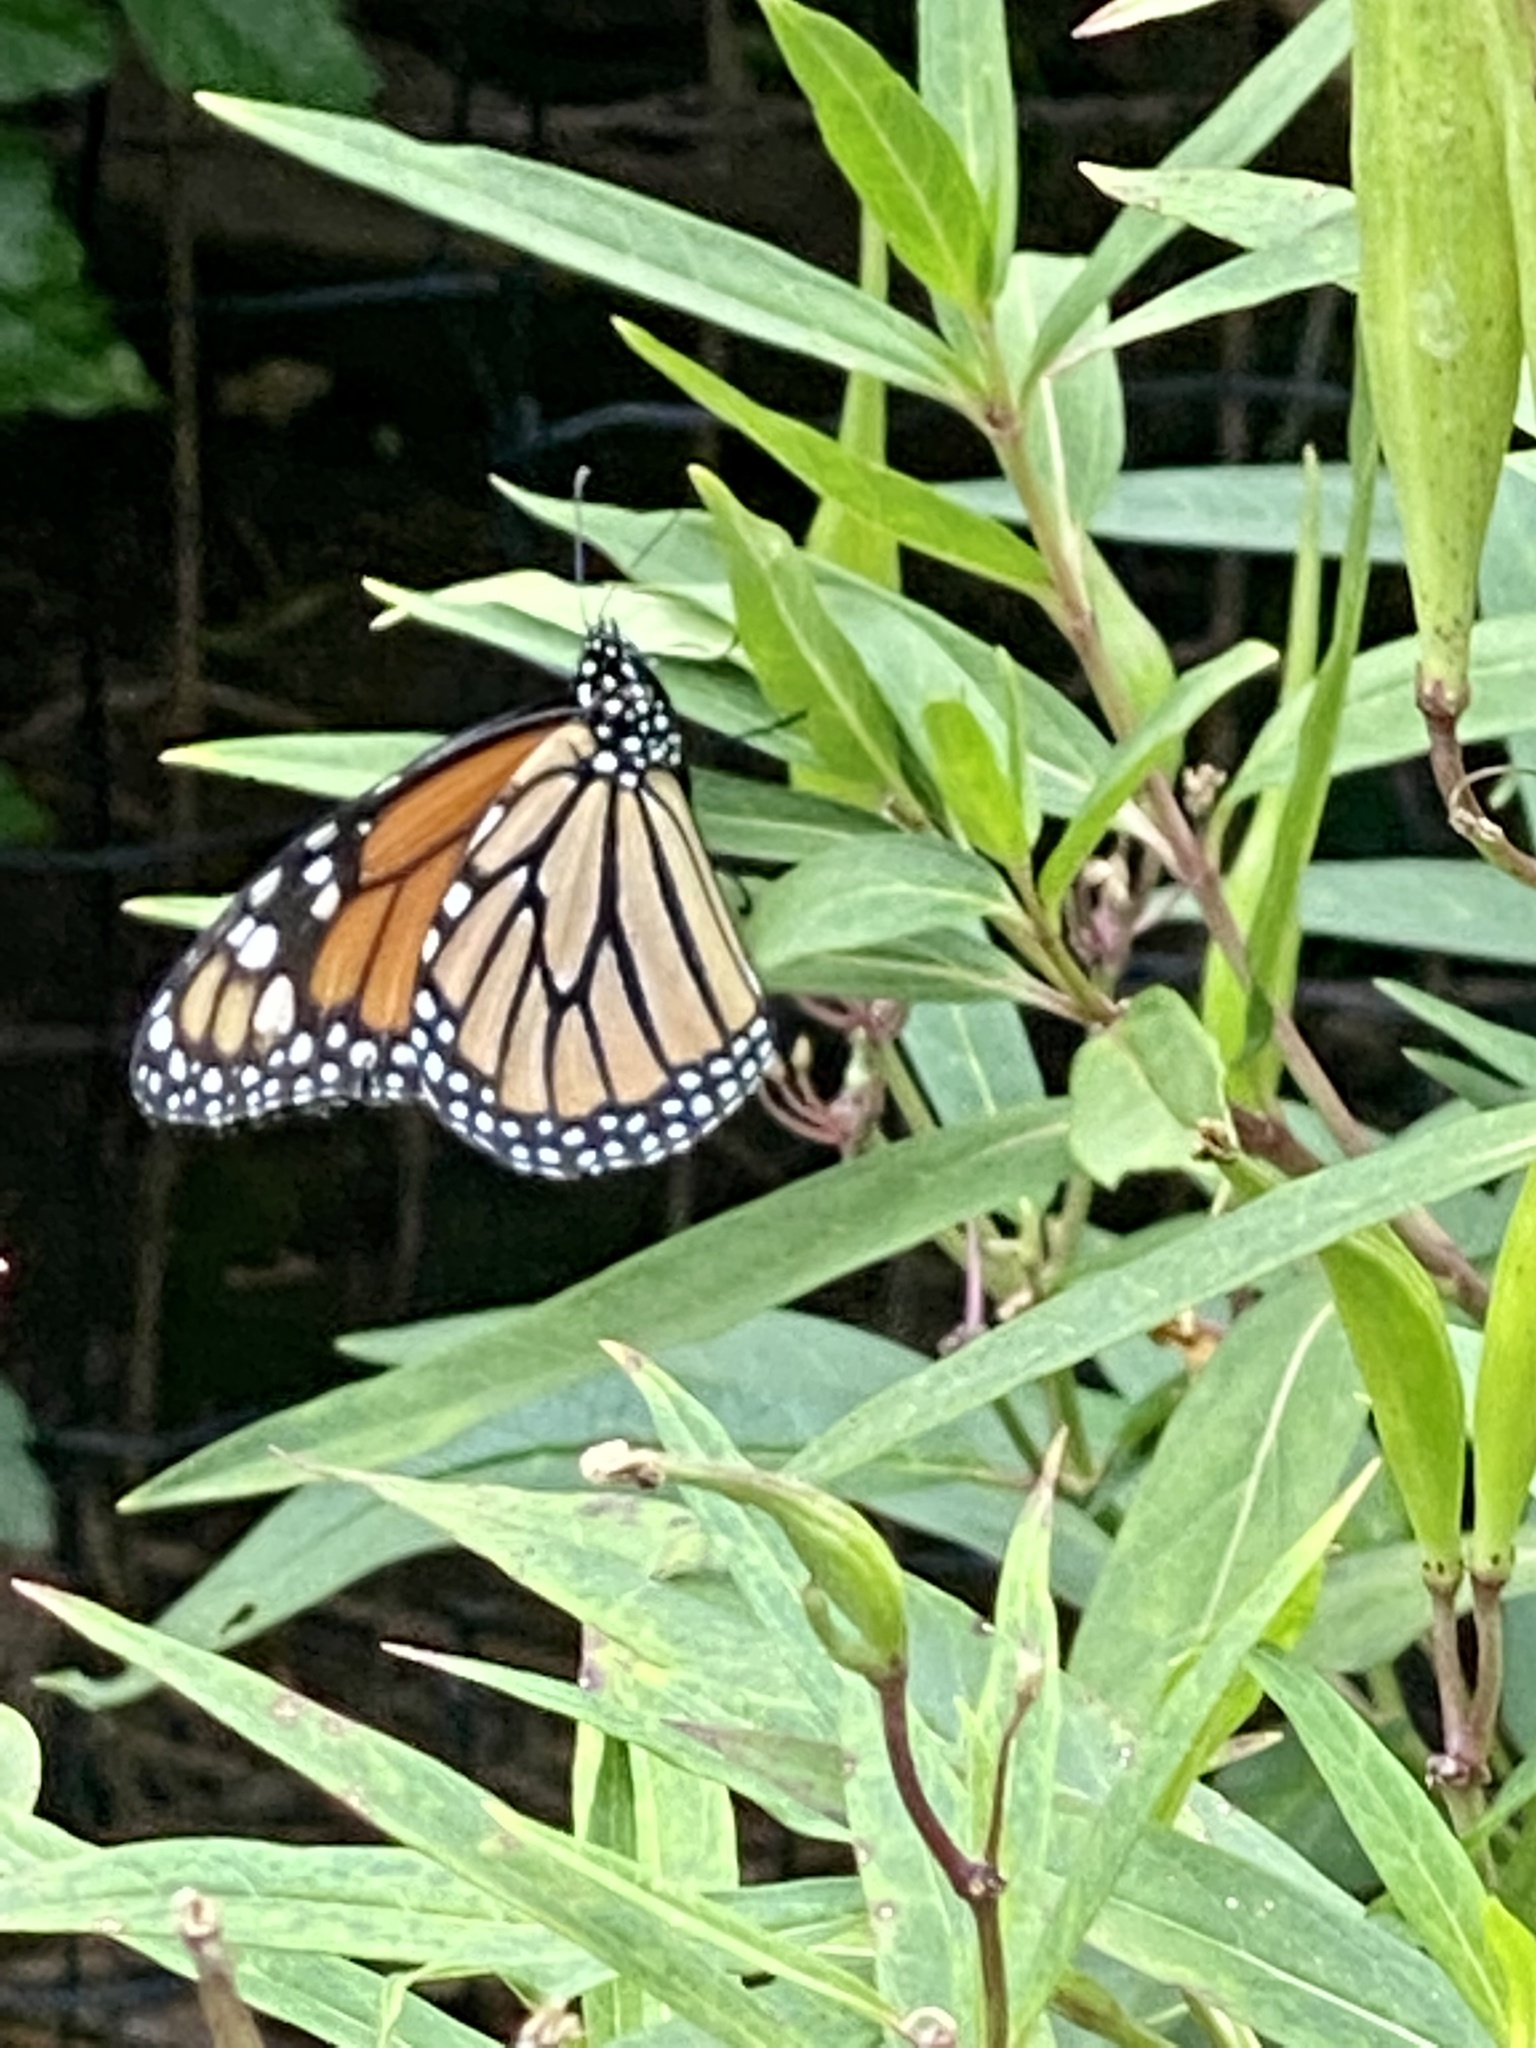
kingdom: Animalia
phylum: Arthropoda
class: Insecta
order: Lepidoptera
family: Nymphalidae
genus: Danaus
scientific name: Danaus plexippus
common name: Monarch
